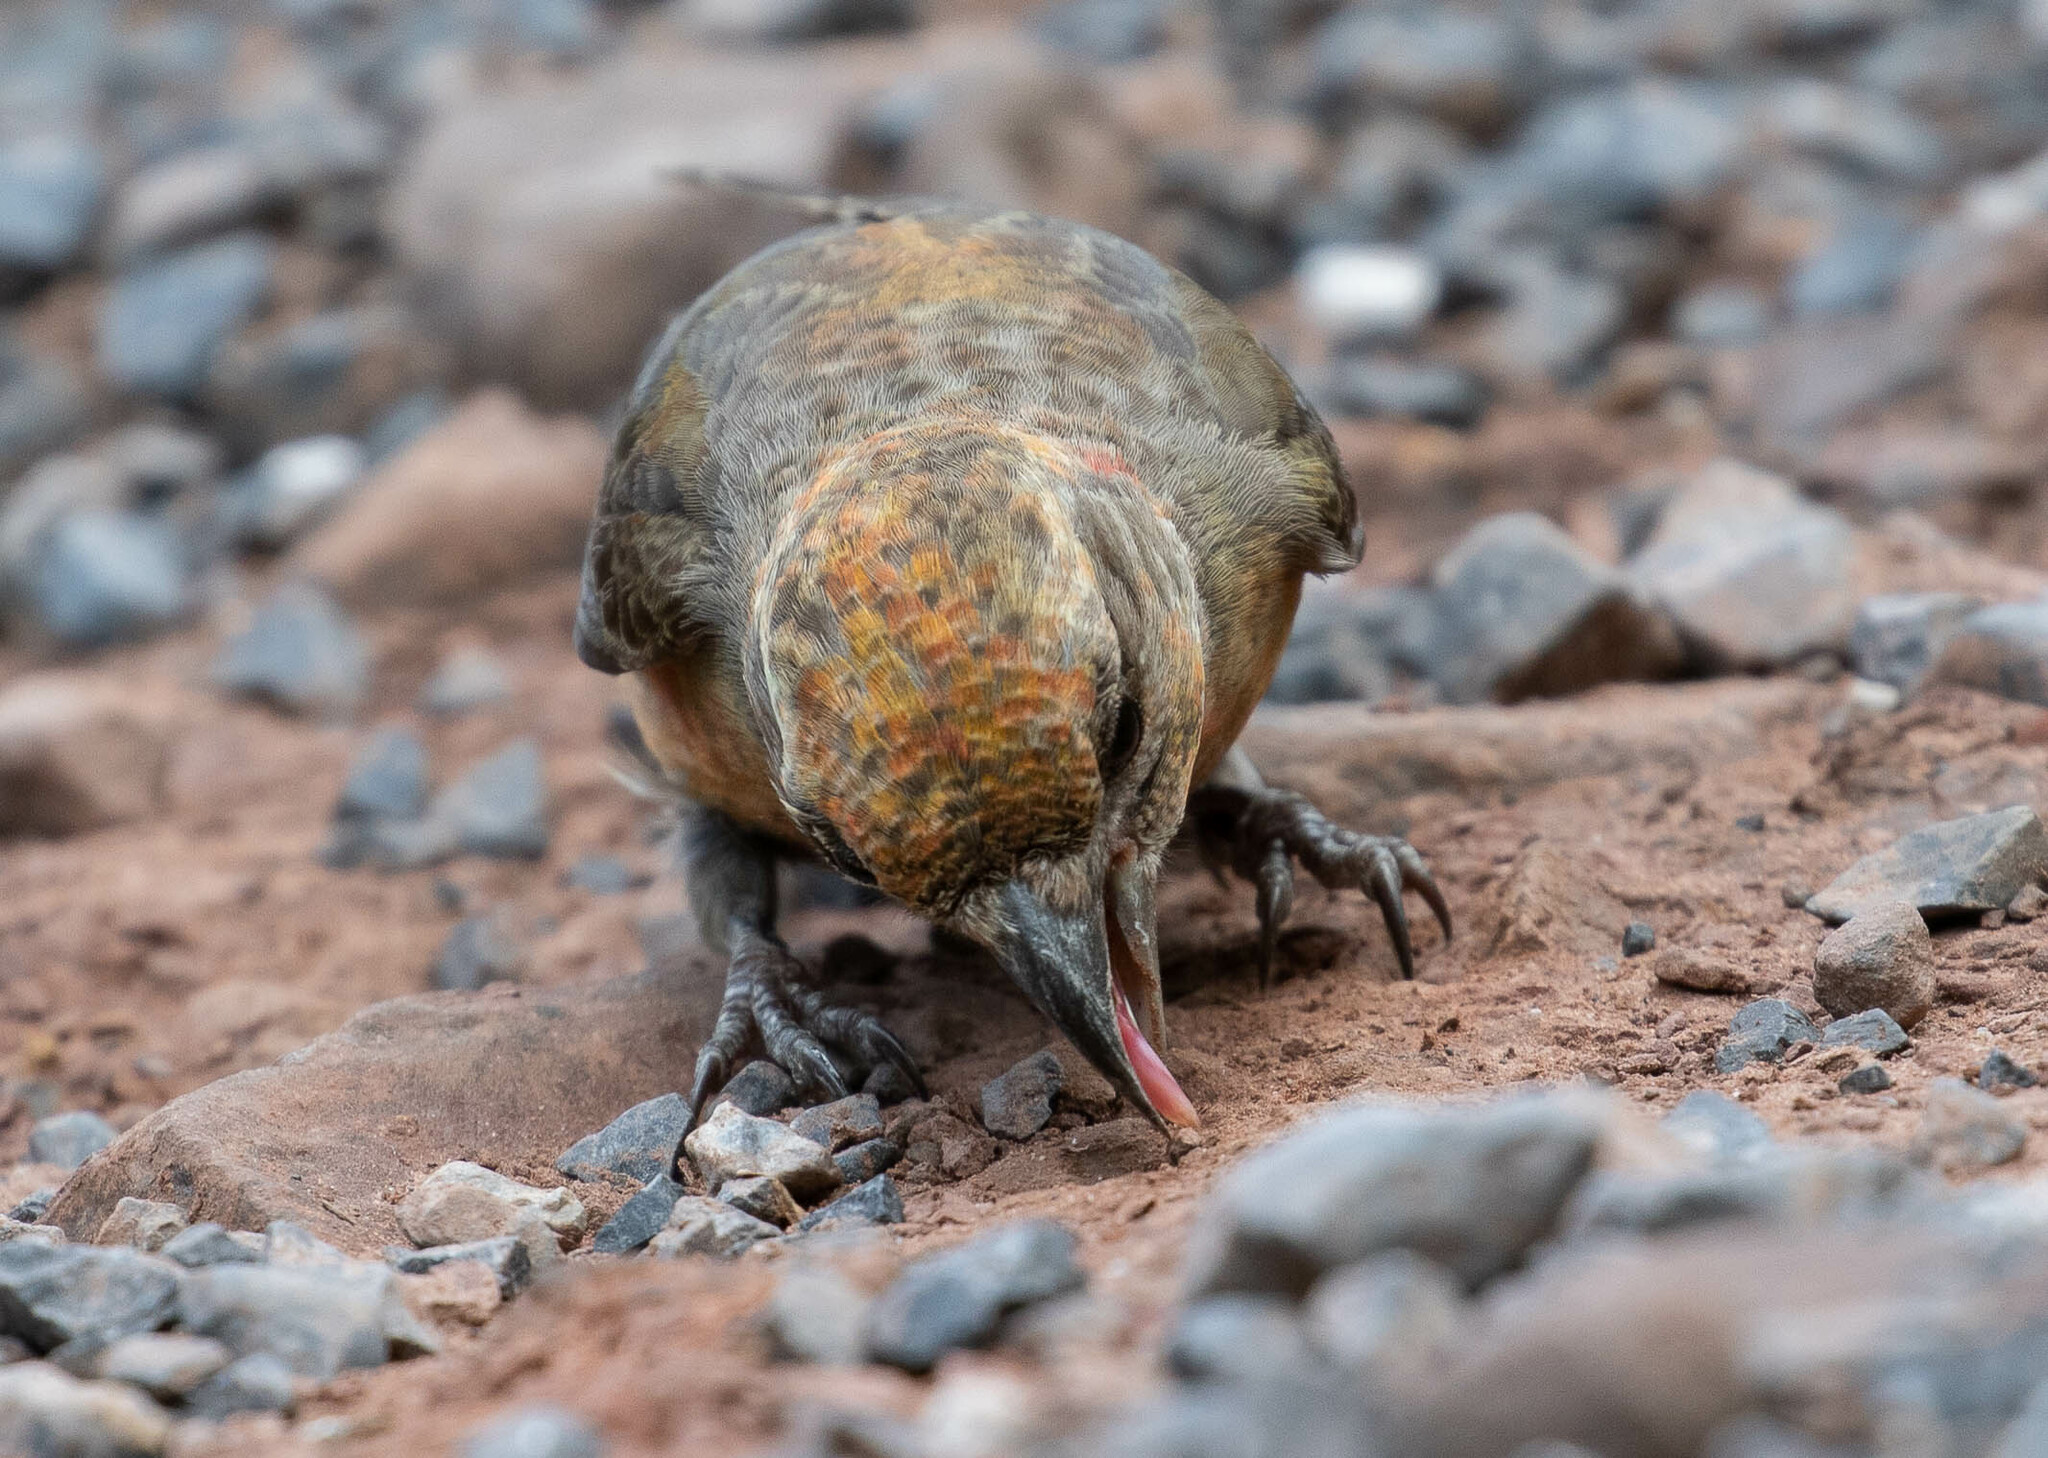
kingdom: Animalia
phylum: Chordata
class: Aves
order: Passeriformes
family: Fringillidae
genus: Loxia
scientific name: Loxia curvirostra
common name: Red crossbill
